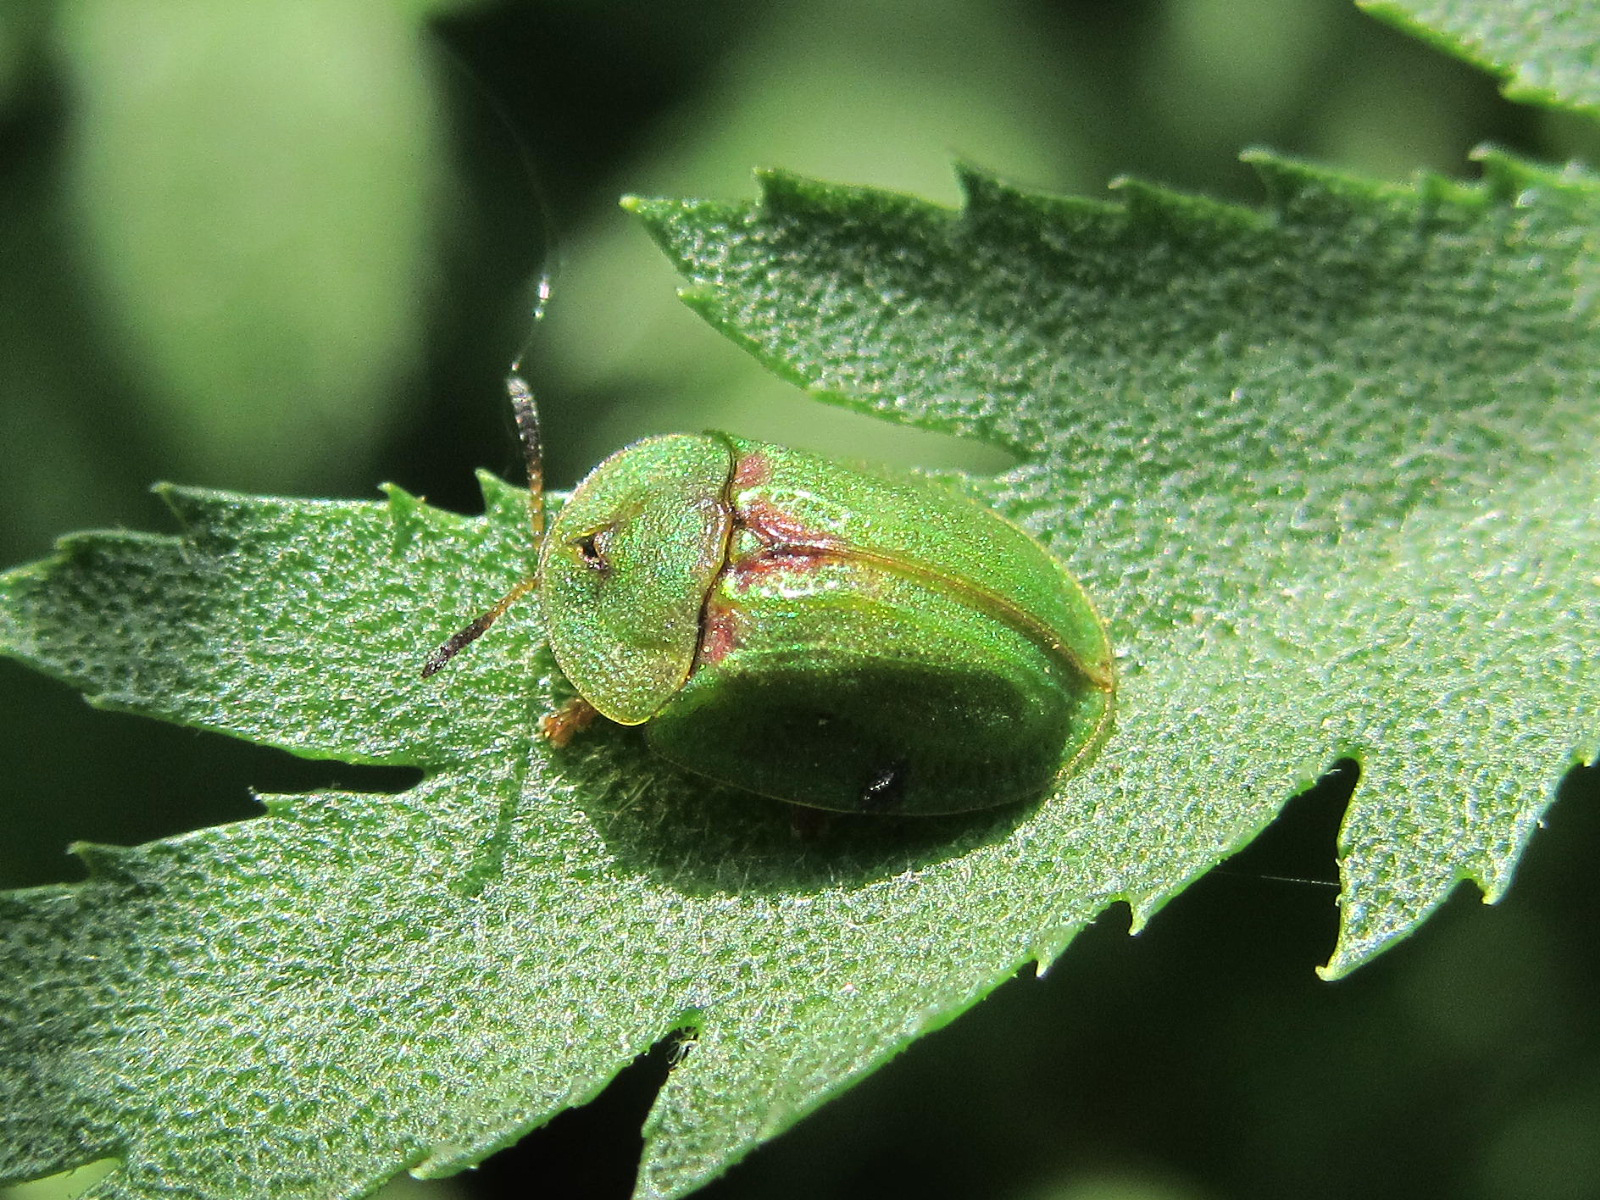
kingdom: Animalia
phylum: Arthropoda
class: Insecta
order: Coleoptera
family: Chrysomelidae
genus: Cassida
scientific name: Cassida stigmatica
